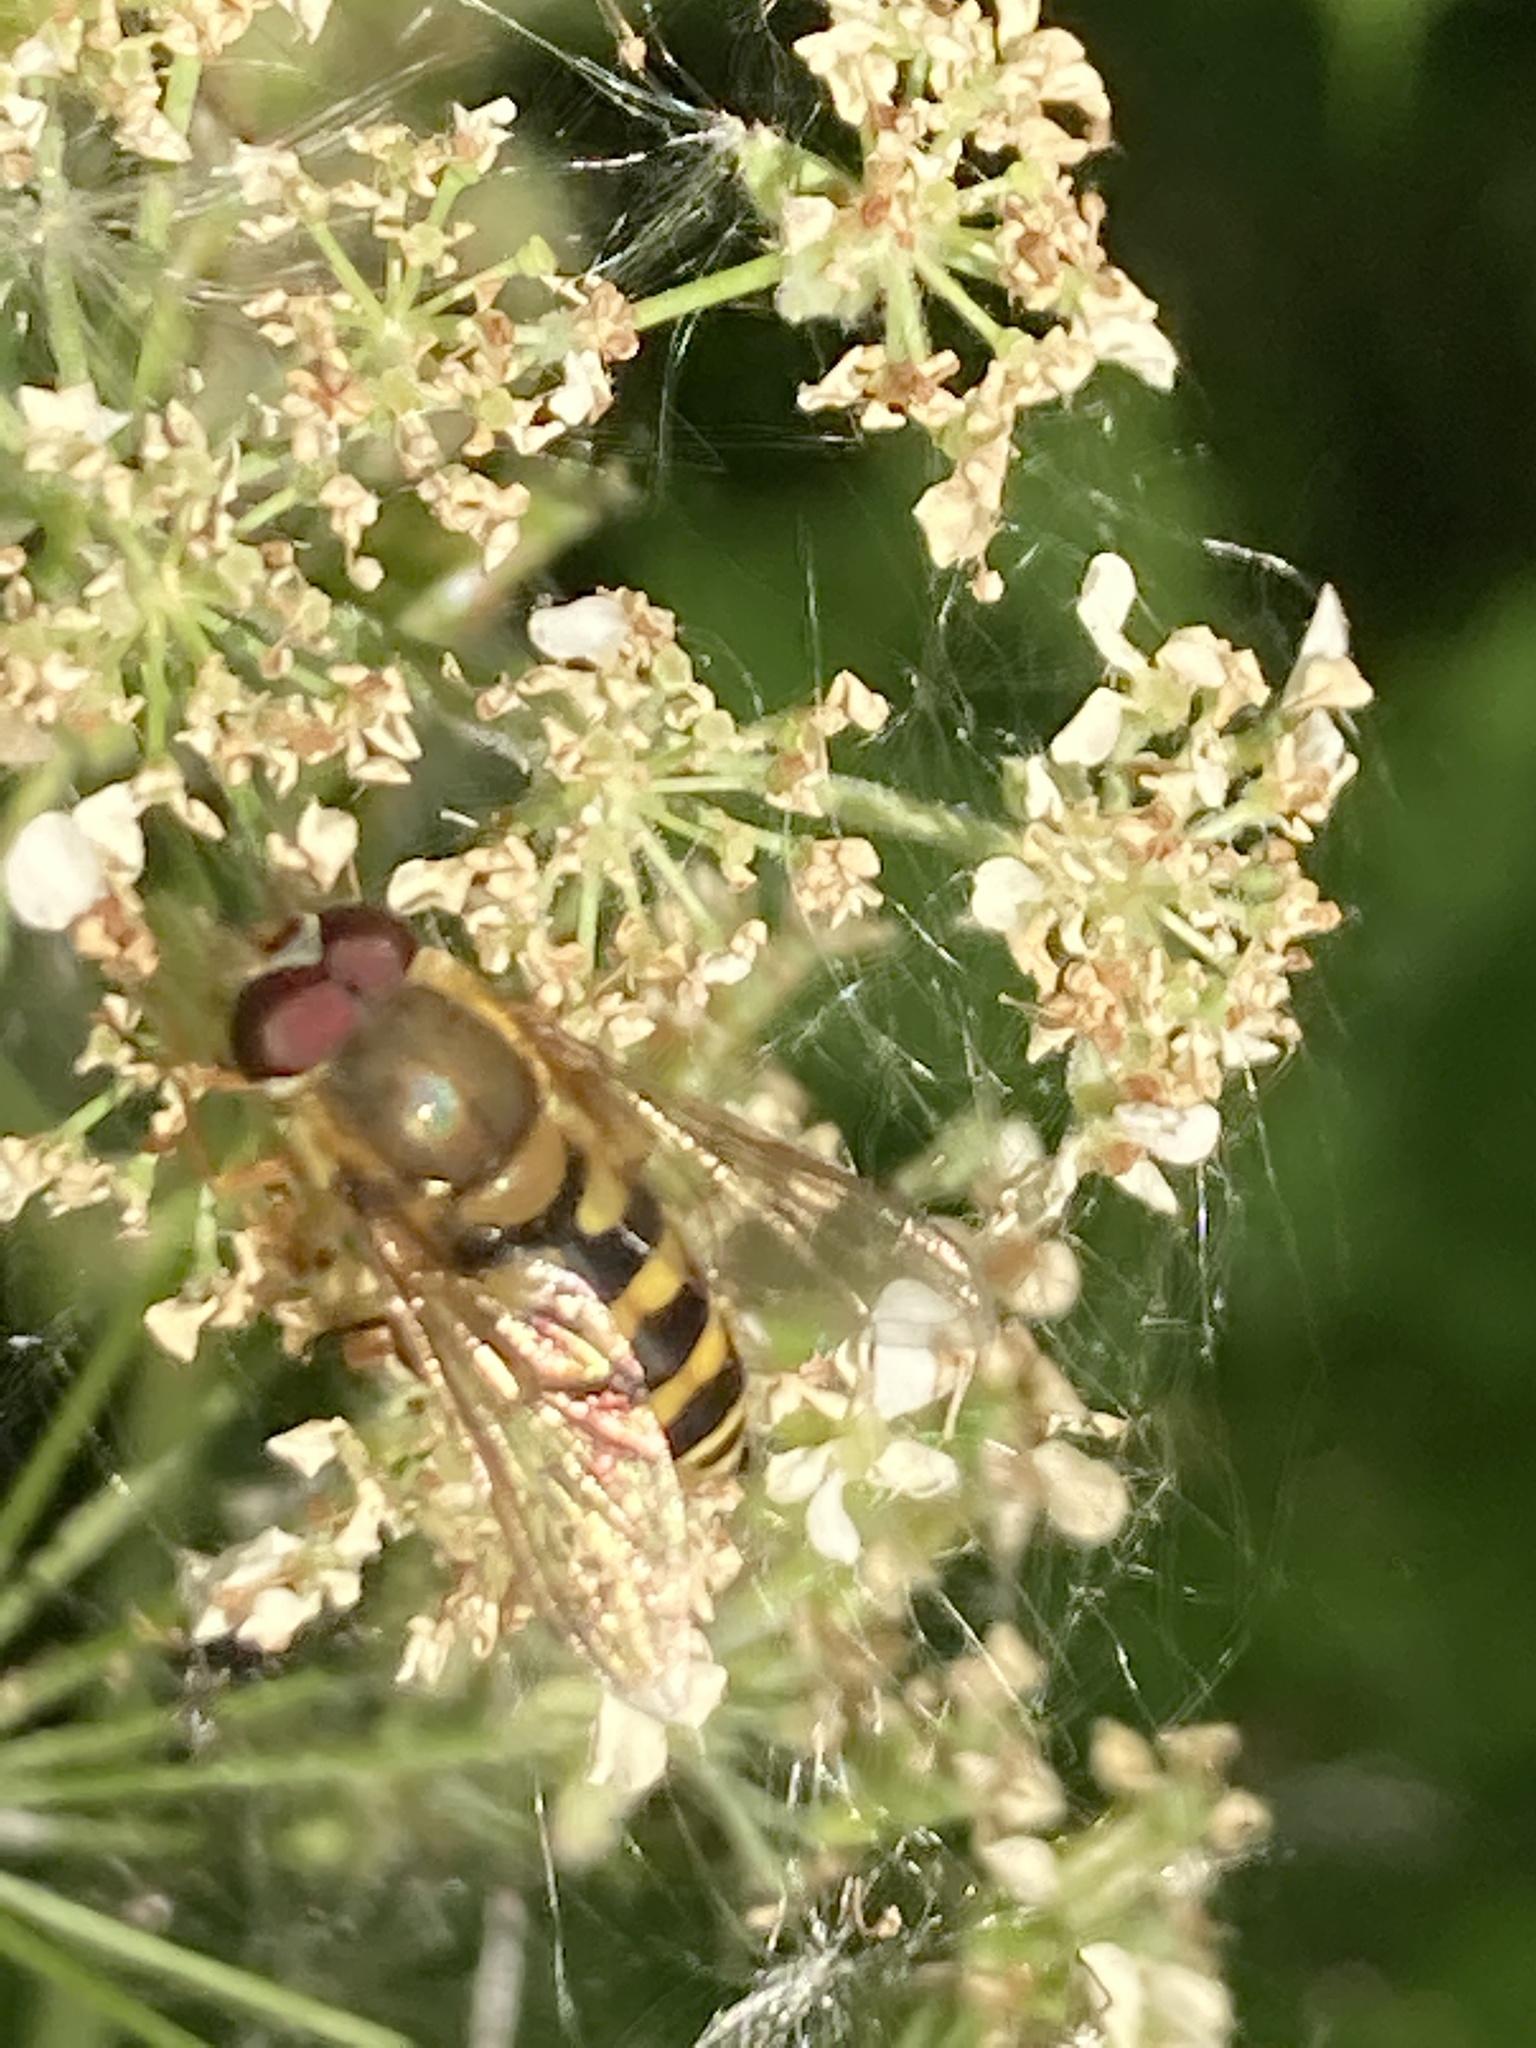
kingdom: Animalia
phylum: Arthropoda
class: Insecta
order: Diptera
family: Syrphidae
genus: Syrphus
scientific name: Syrphus
